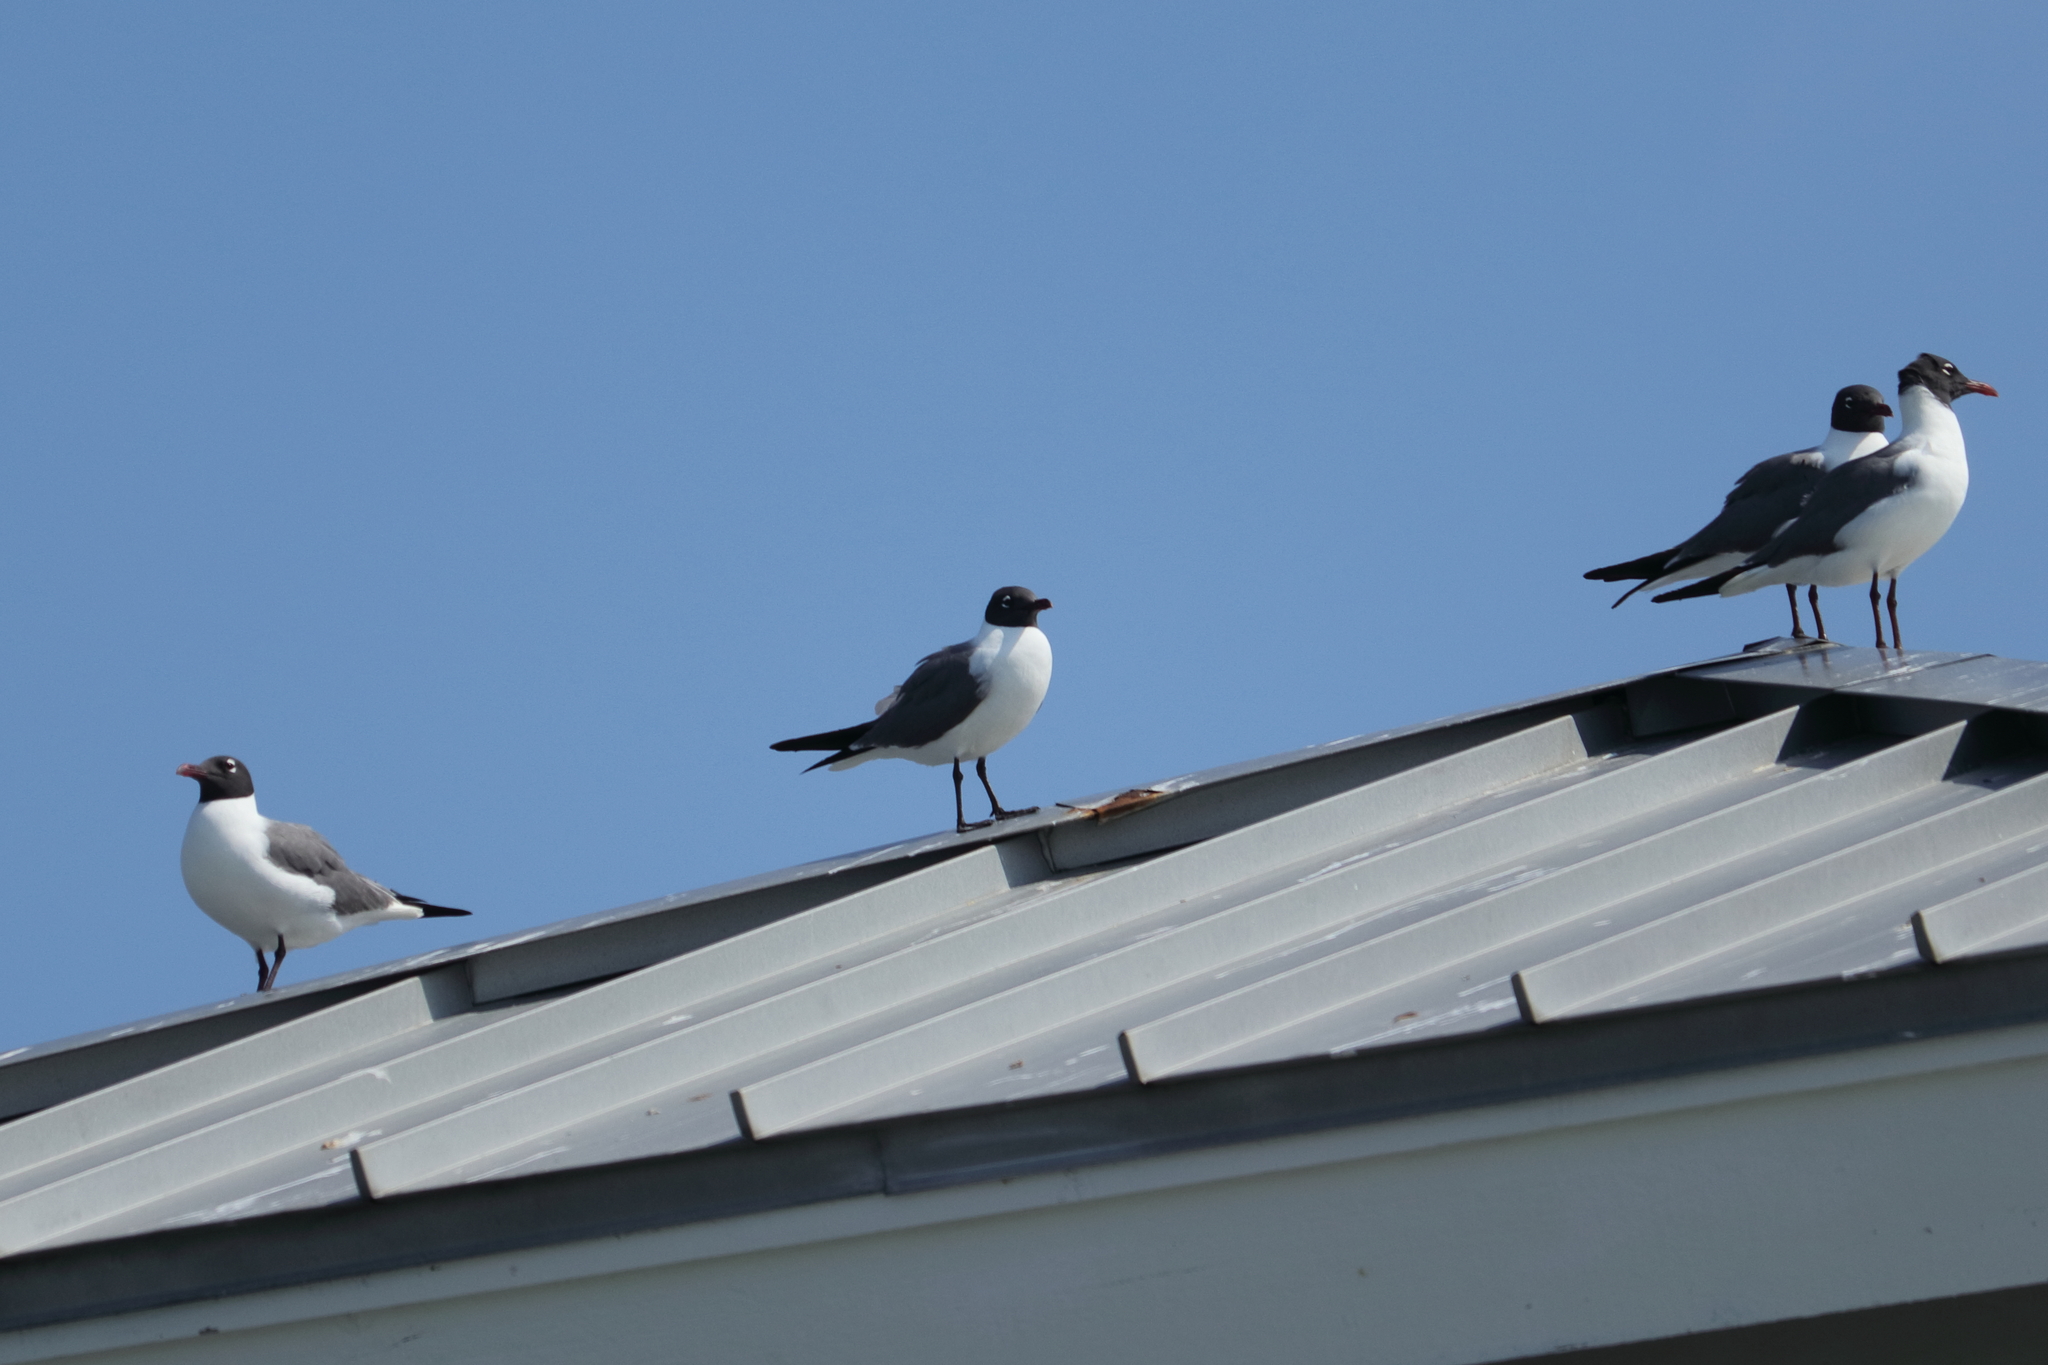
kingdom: Animalia
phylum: Chordata
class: Aves
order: Charadriiformes
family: Laridae
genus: Leucophaeus
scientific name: Leucophaeus atricilla
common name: Laughing gull
